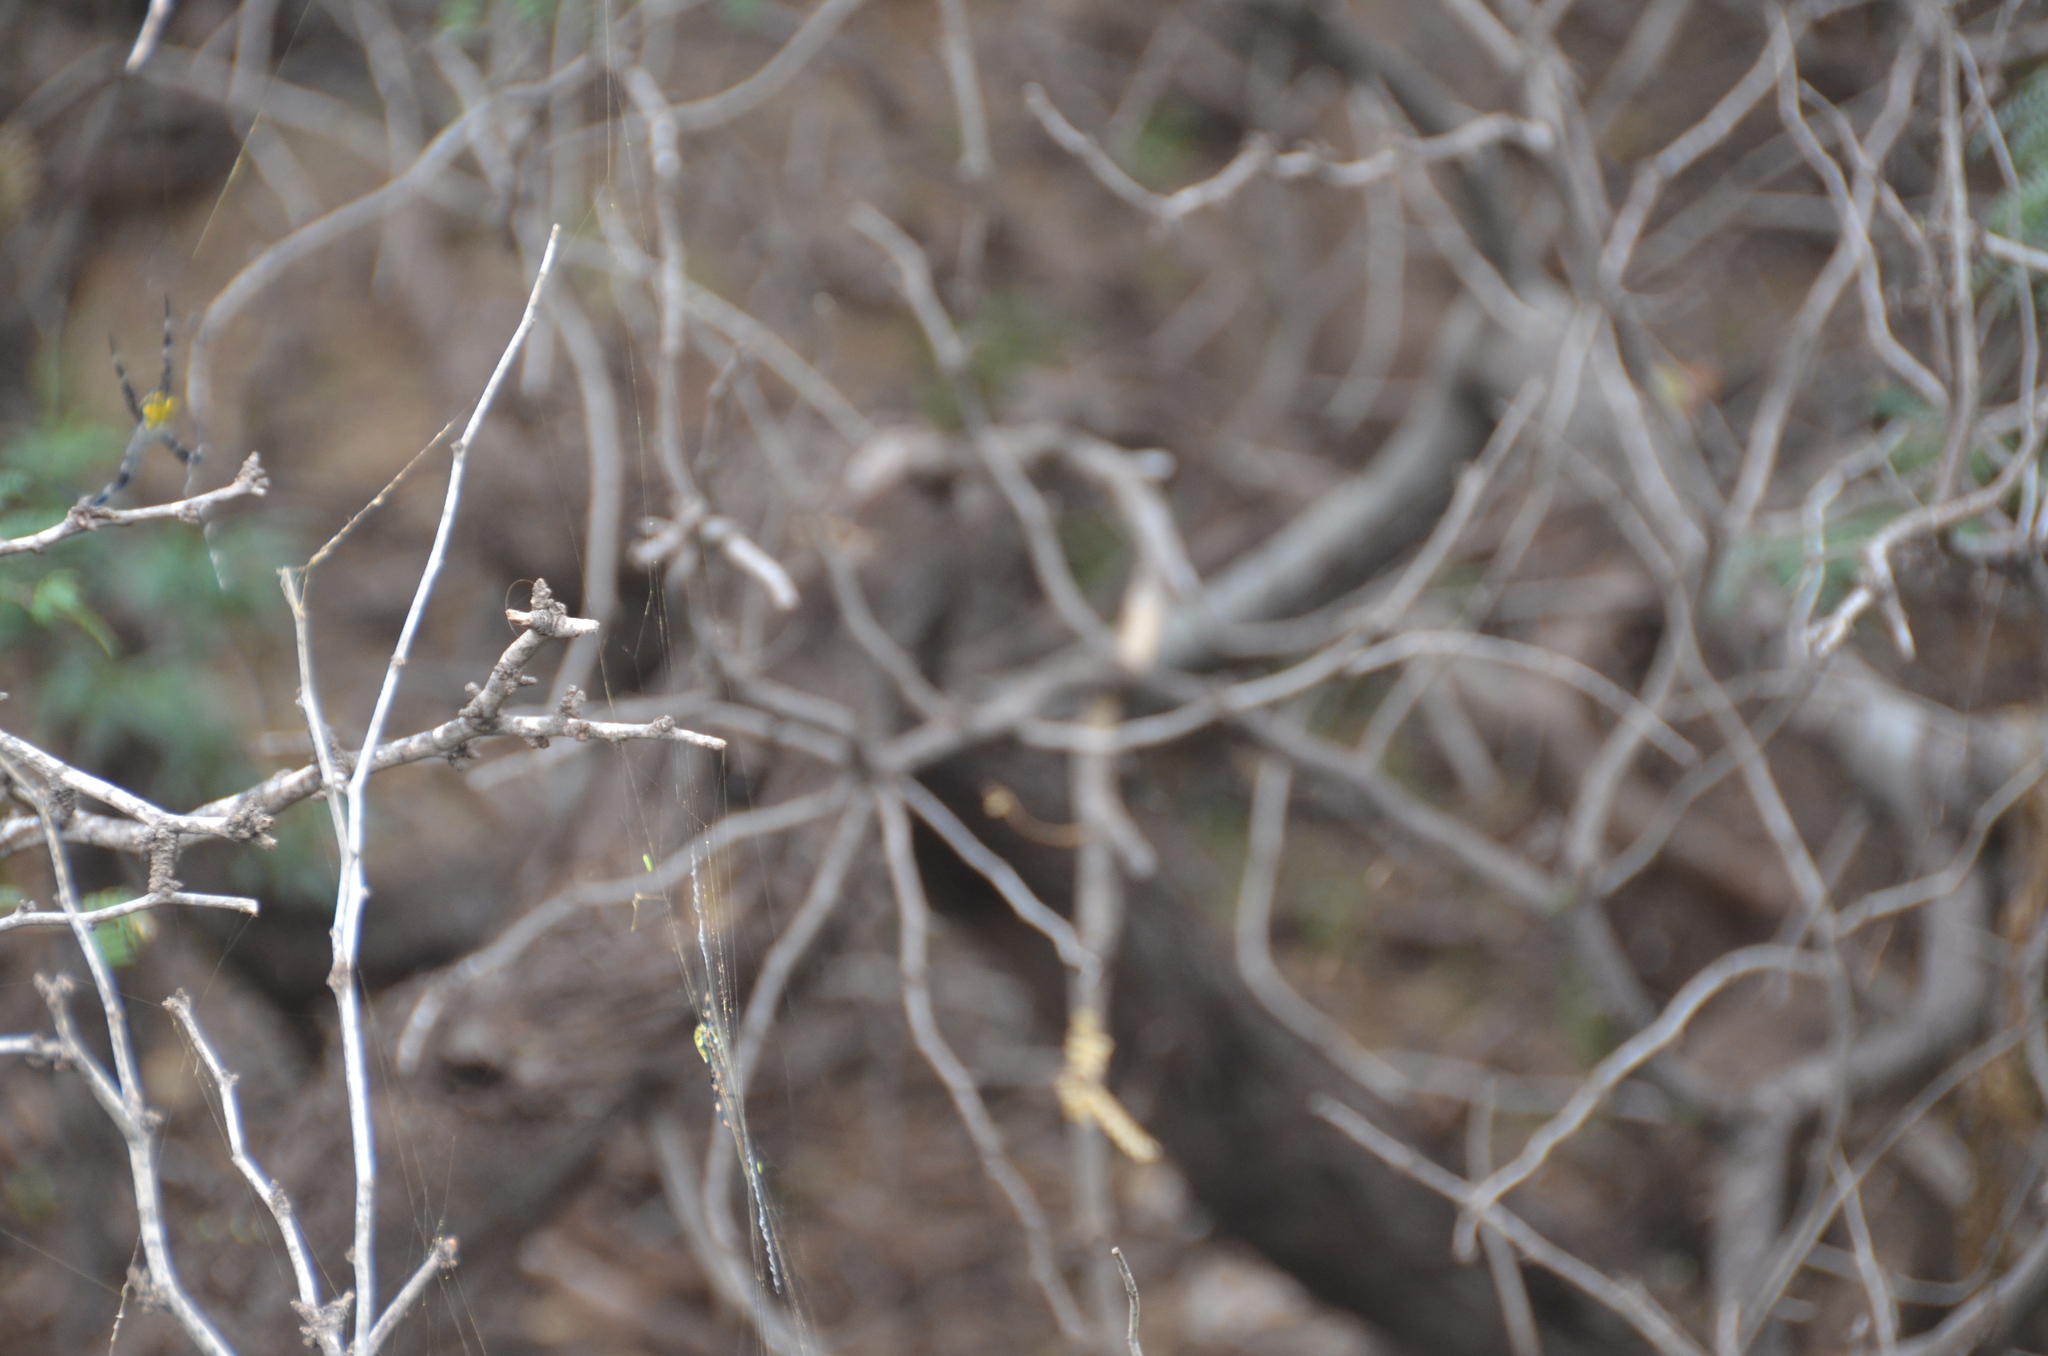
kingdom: Animalia
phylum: Arthropoda
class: Arachnida
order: Araneae
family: Araneidae
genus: Argiope
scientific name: Argiope appensa
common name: Garden spider
